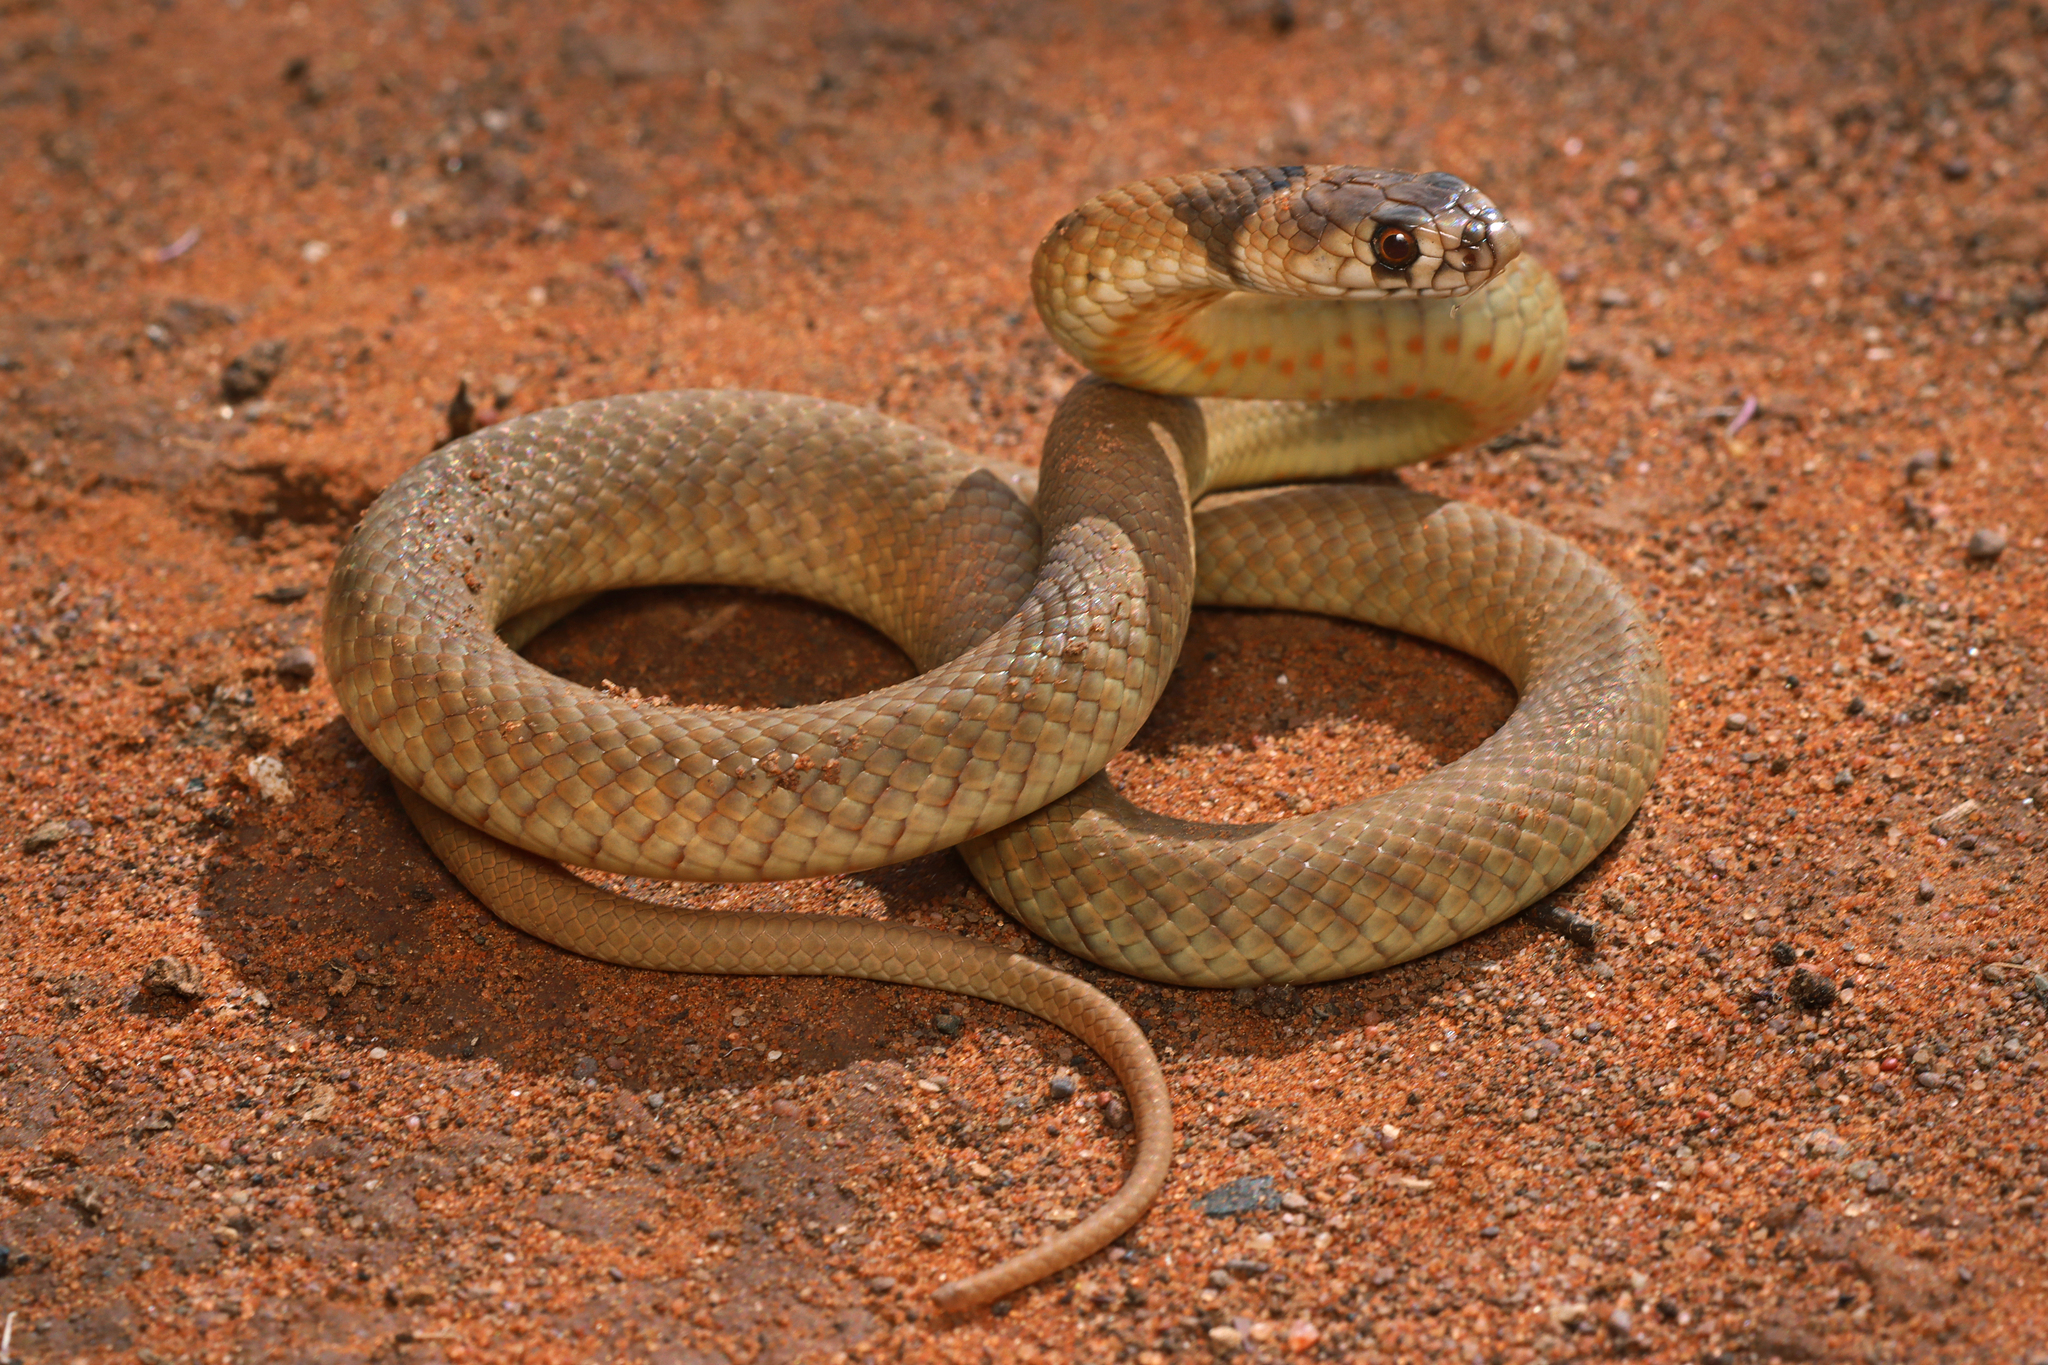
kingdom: Animalia
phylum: Chordata
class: Squamata
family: Elapidae
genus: Pseudonaja
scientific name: Pseudonaja aspidorhyncha
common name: Strap-snouted brown snake
